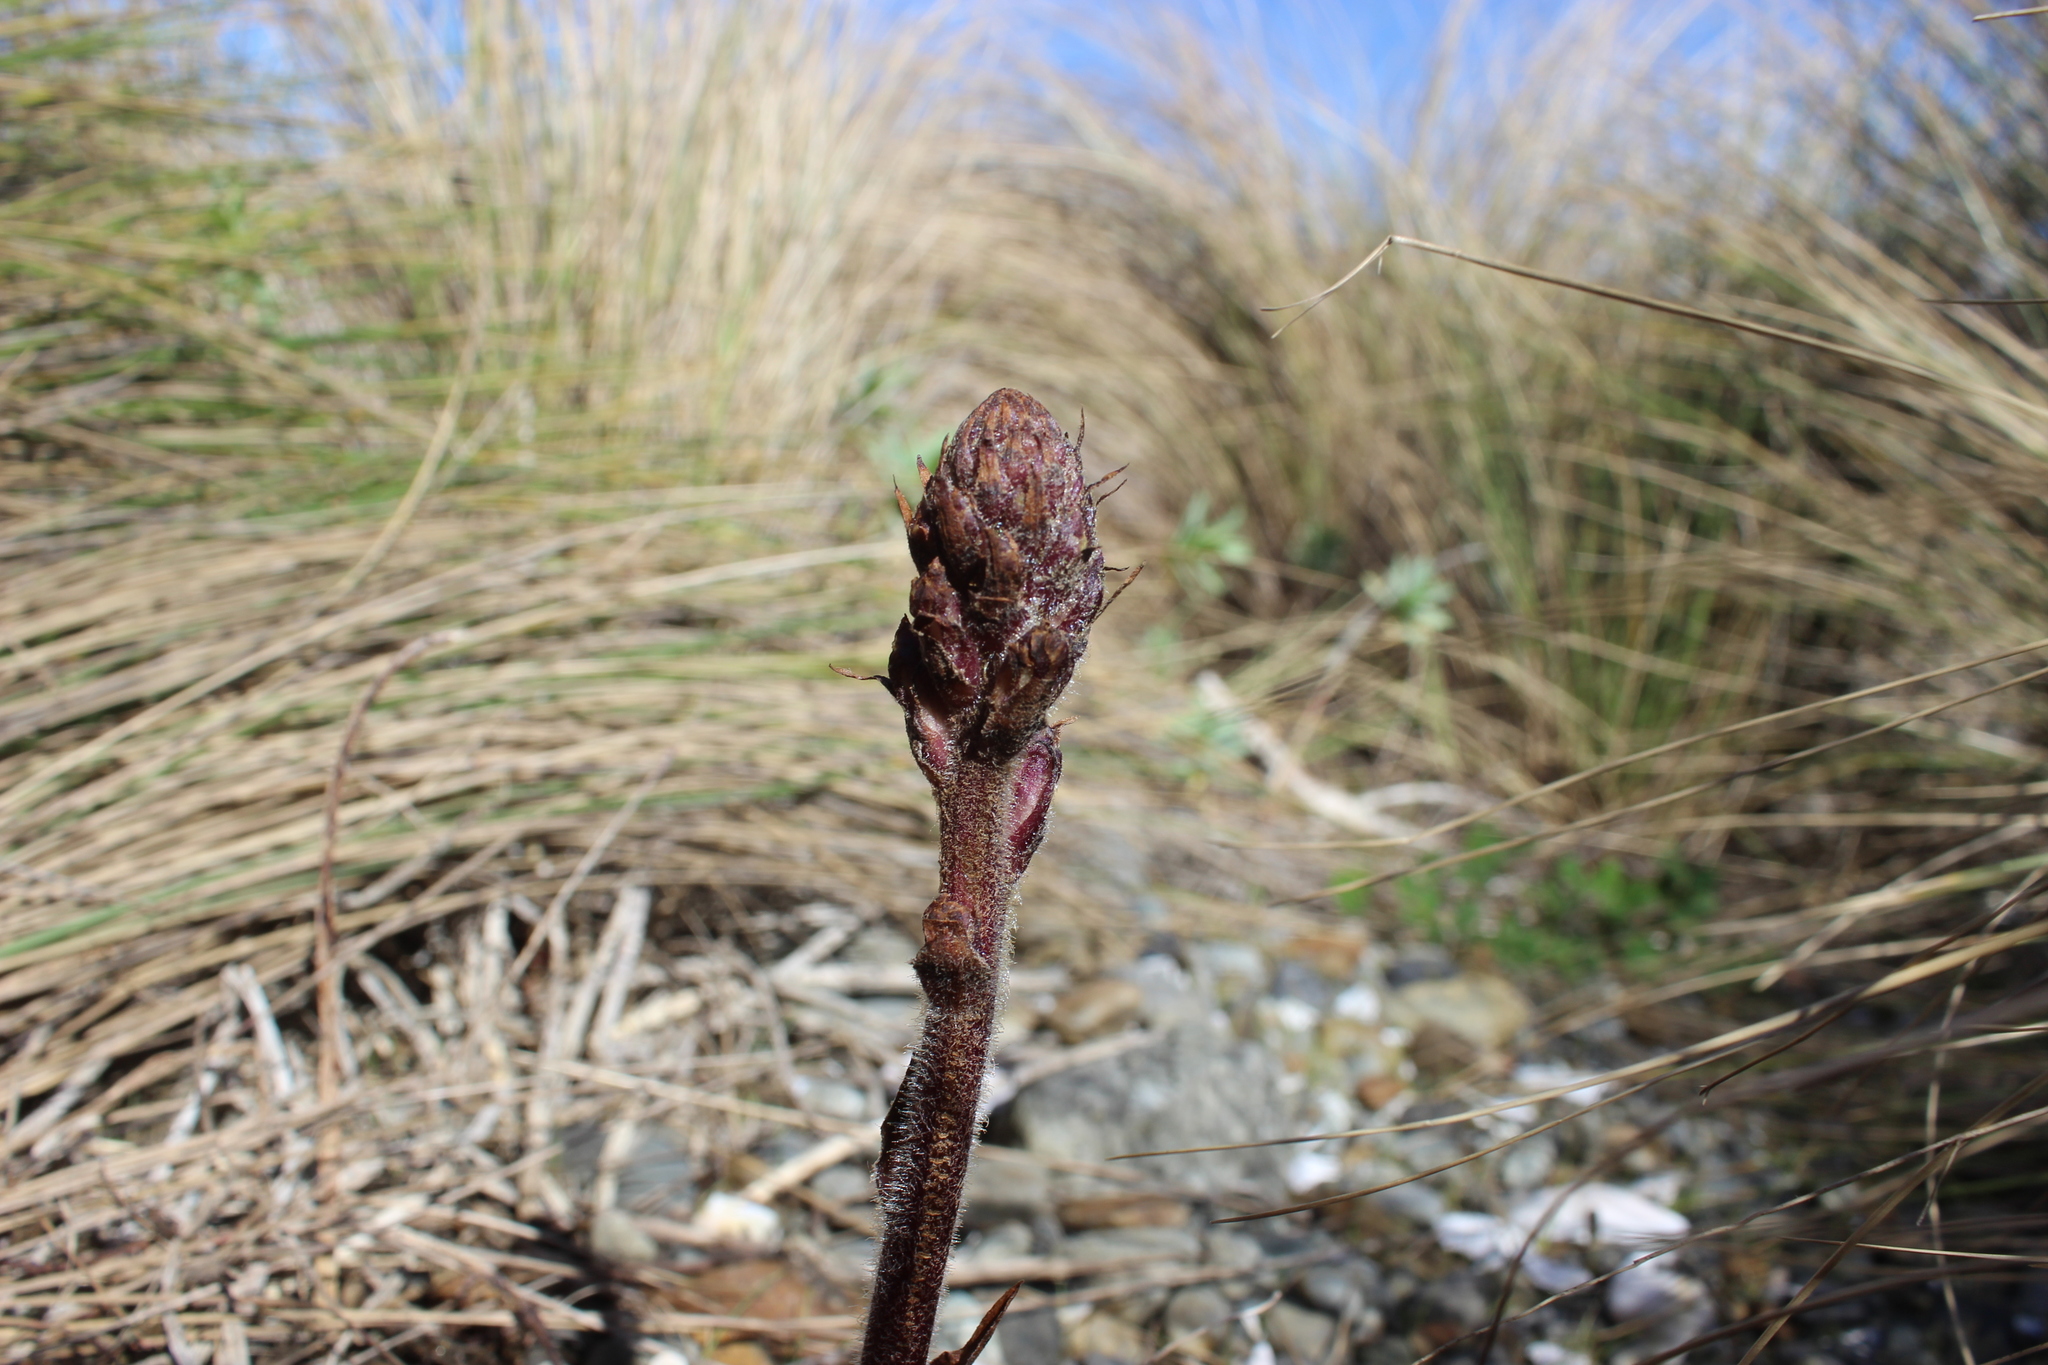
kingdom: Plantae
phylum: Tracheophyta
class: Magnoliopsida
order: Lamiales
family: Orobanchaceae
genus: Orobanche
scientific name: Orobanche minor
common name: Common broomrape
